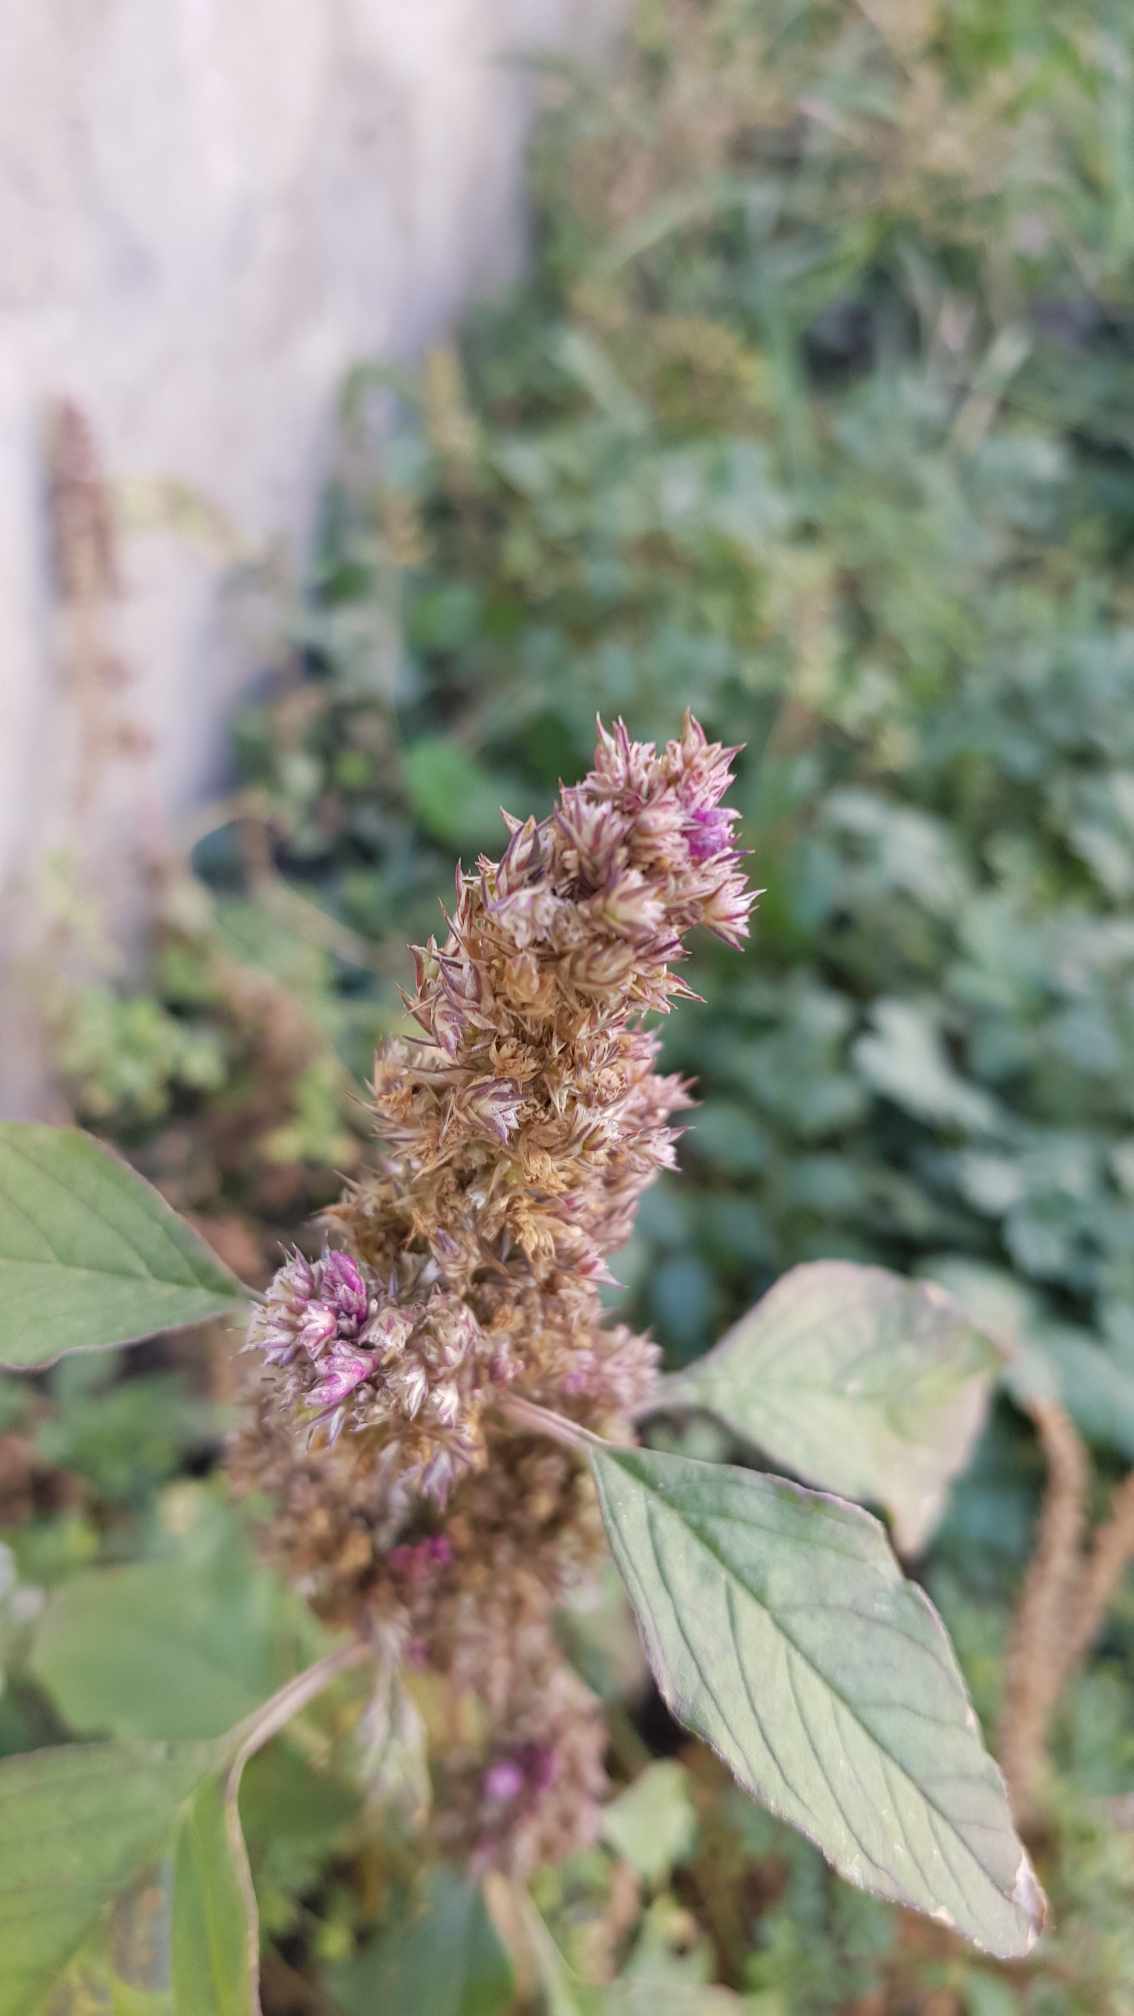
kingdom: Plantae
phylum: Tracheophyta
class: Magnoliopsida
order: Caryophyllales
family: Amaranthaceae
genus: Amaranthus
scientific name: Amaranthus retroflexus
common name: Redroot amaranth
